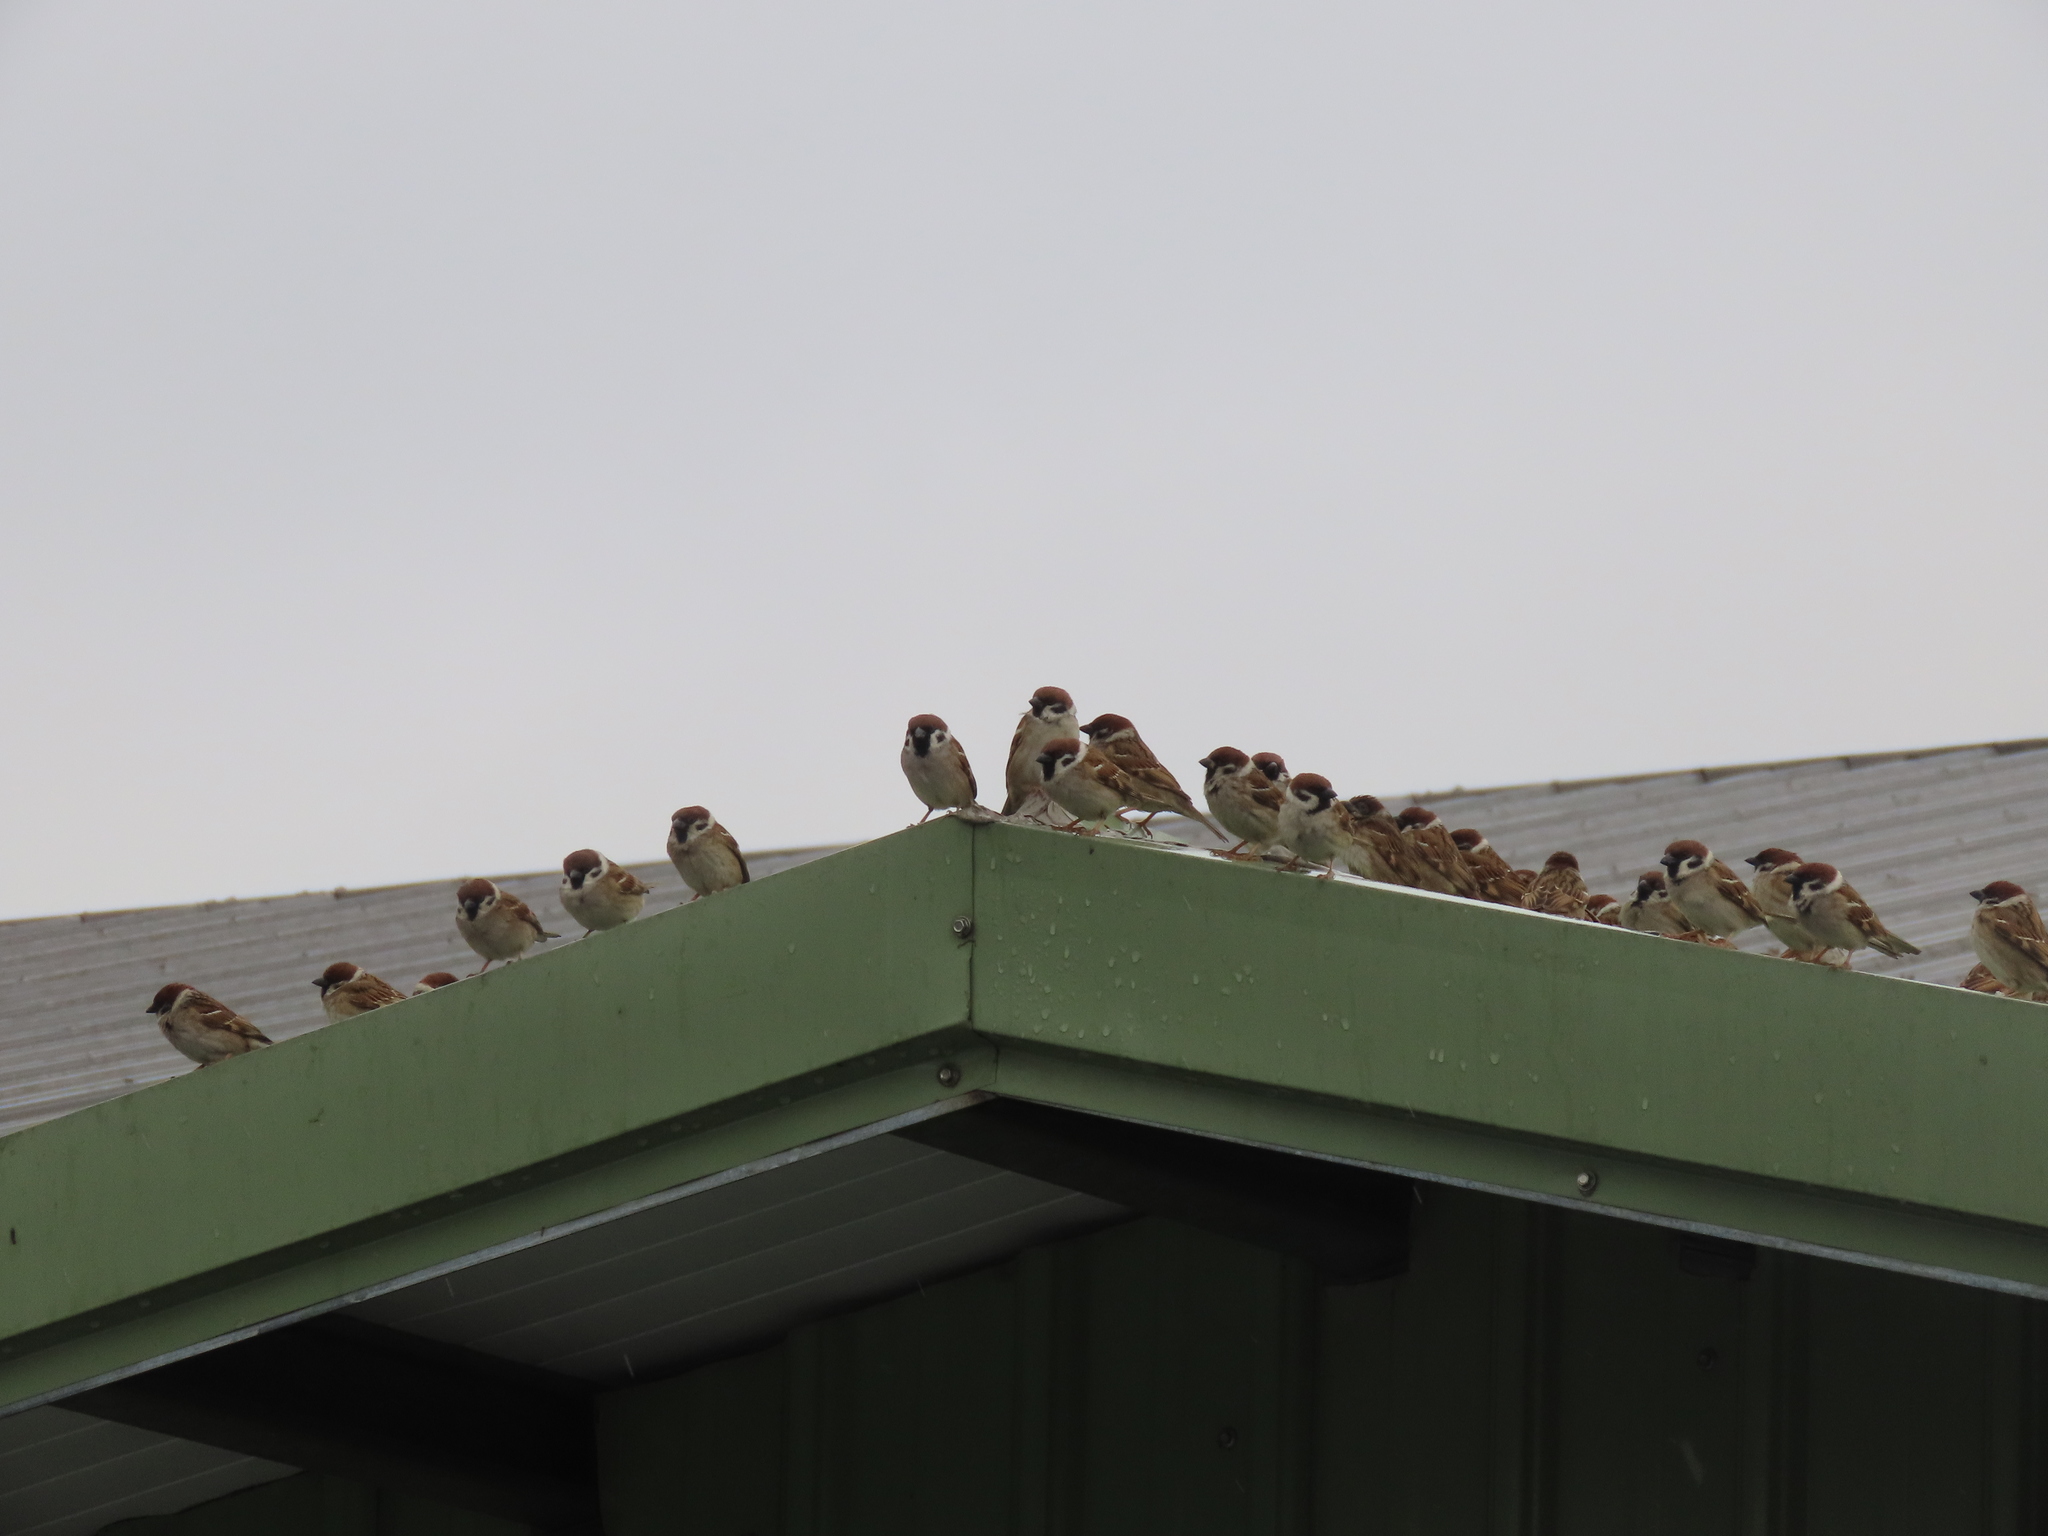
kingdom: Animalia
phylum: Chordata
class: Aves
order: Passeriformes
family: Passeridae
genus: Passer
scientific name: Passer montanus
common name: Eurasian tree sparrow
